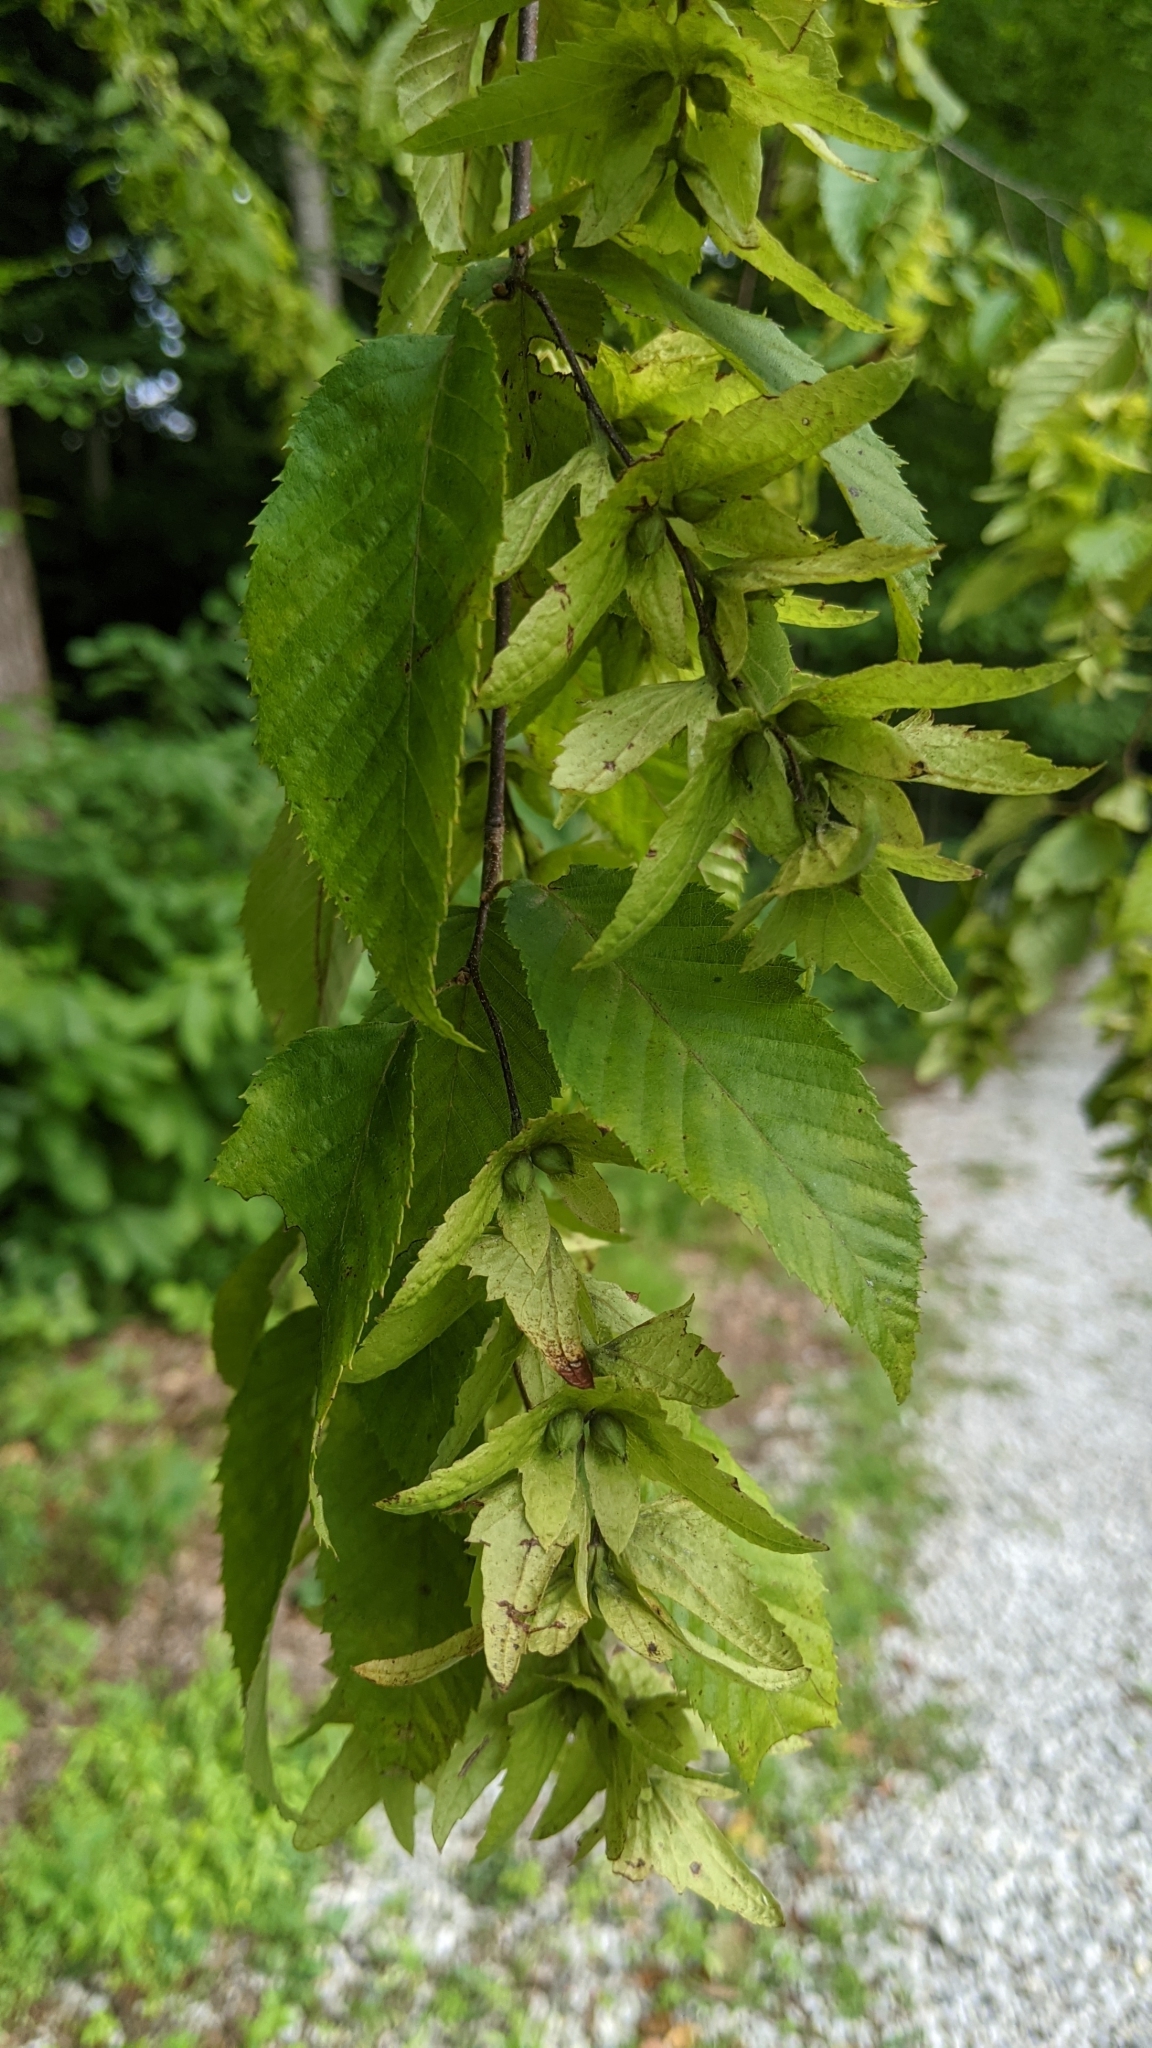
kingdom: Plantae
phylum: Tracheophyta
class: Magnoliopsida
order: Fagales
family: Betulaceae
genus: Carpinus
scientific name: Carpinus caroliniana
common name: American hornbeam
